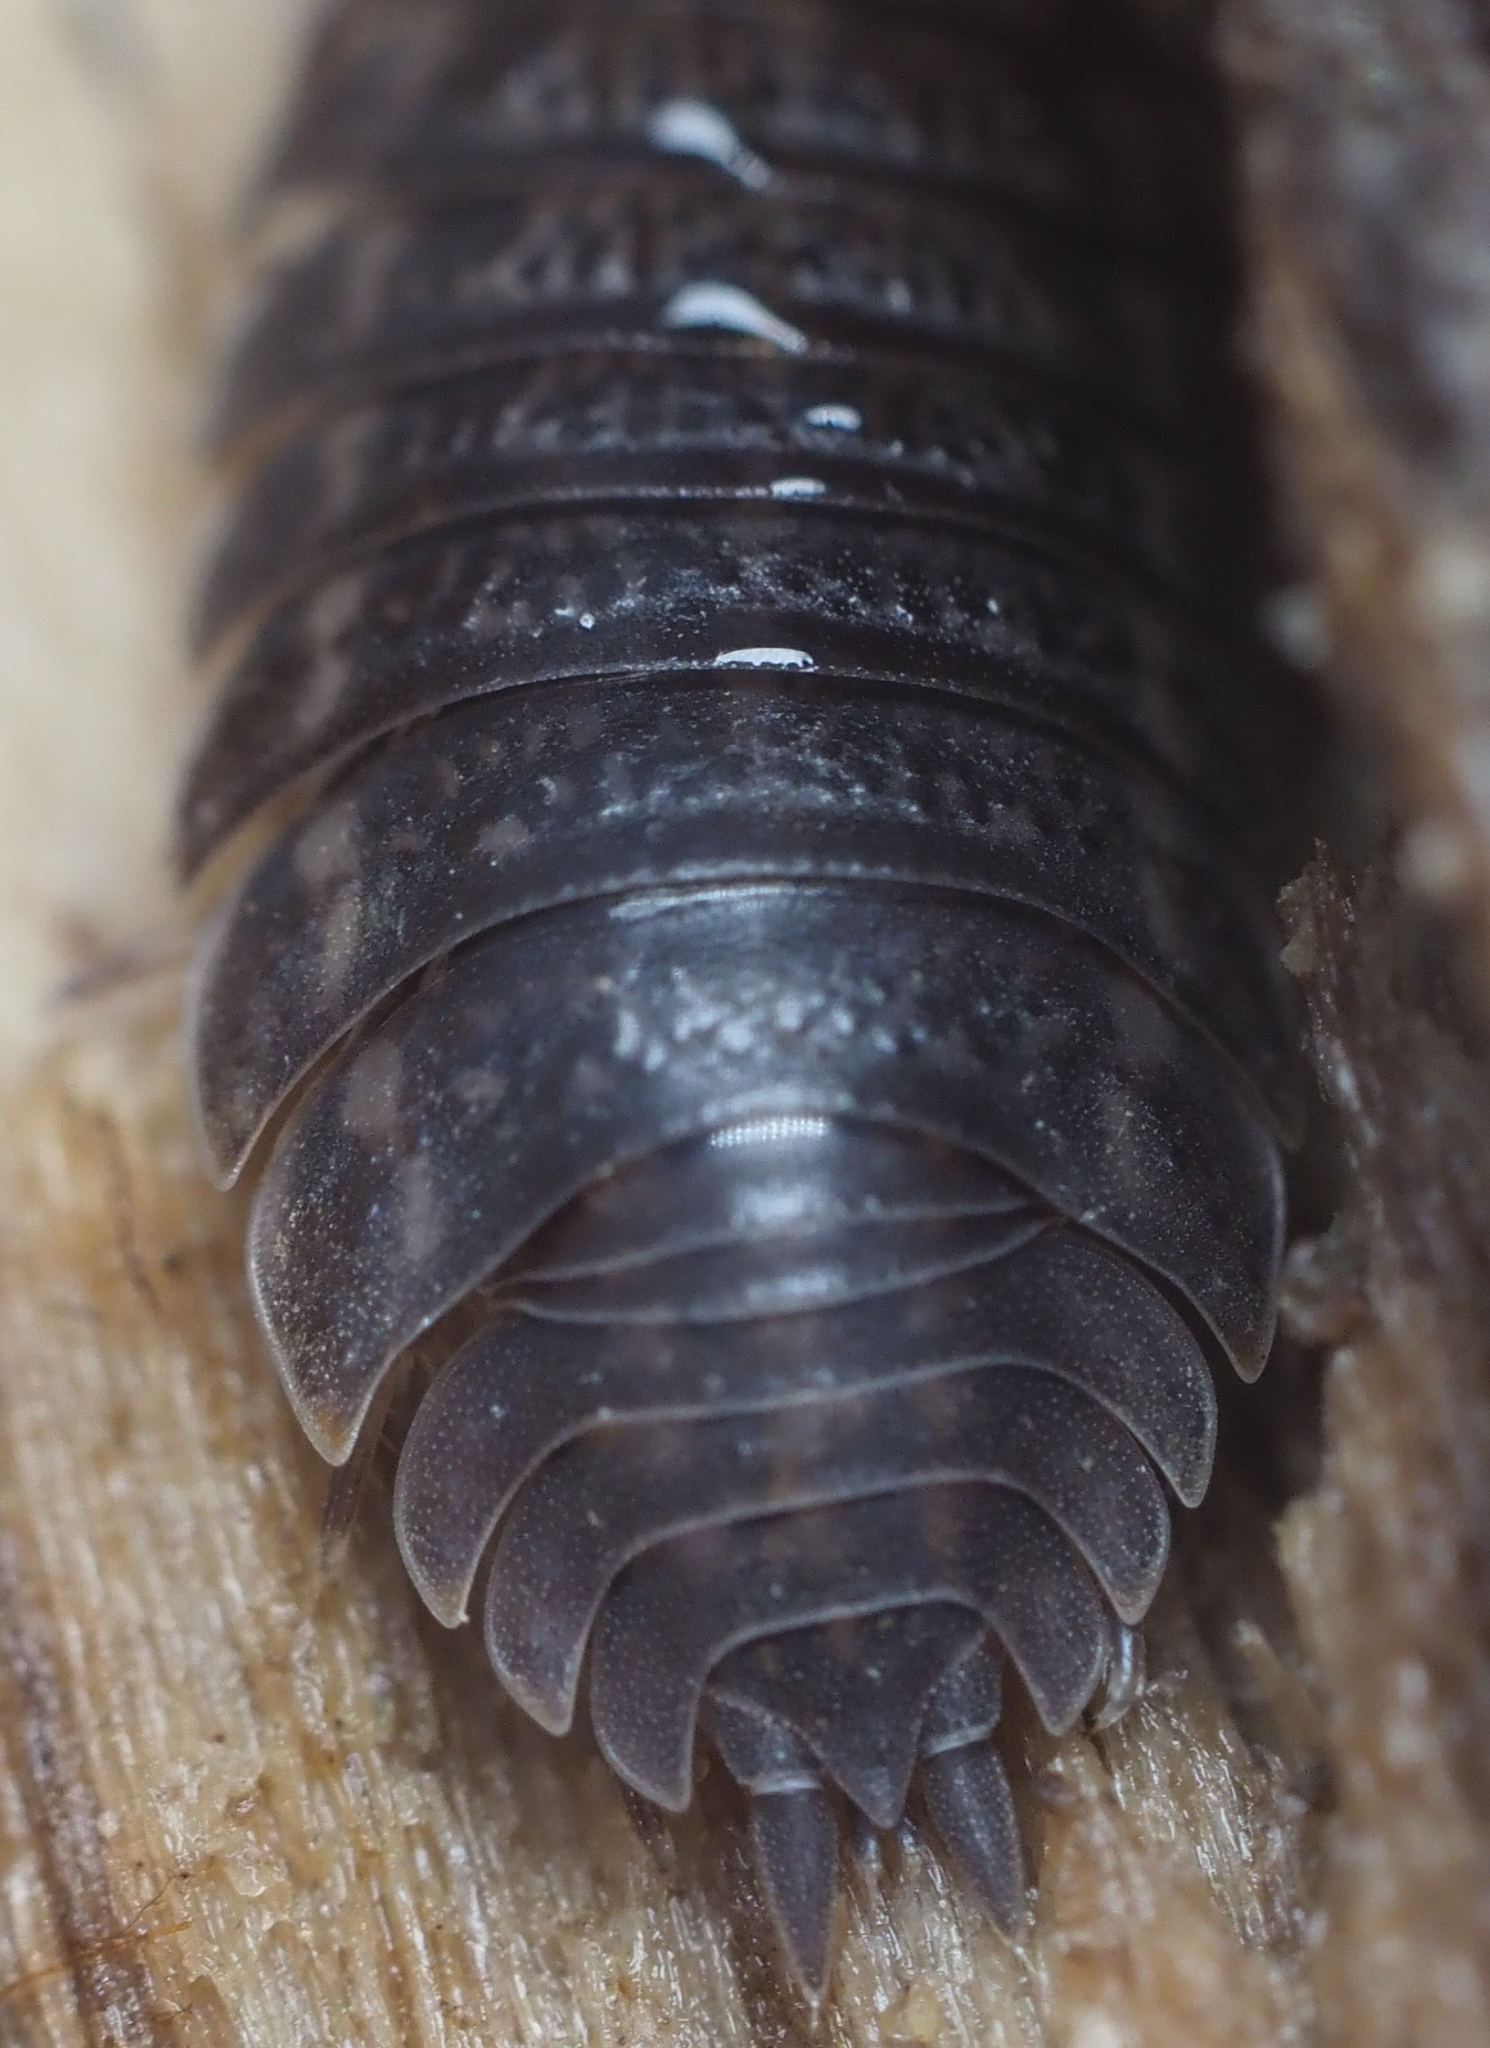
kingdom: Animalia
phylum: Arthropoda
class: Malacostraca
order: Isopoda
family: Trachelipodidae
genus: Trachelipus
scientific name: Trachelipus rathkii
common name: Isopod
